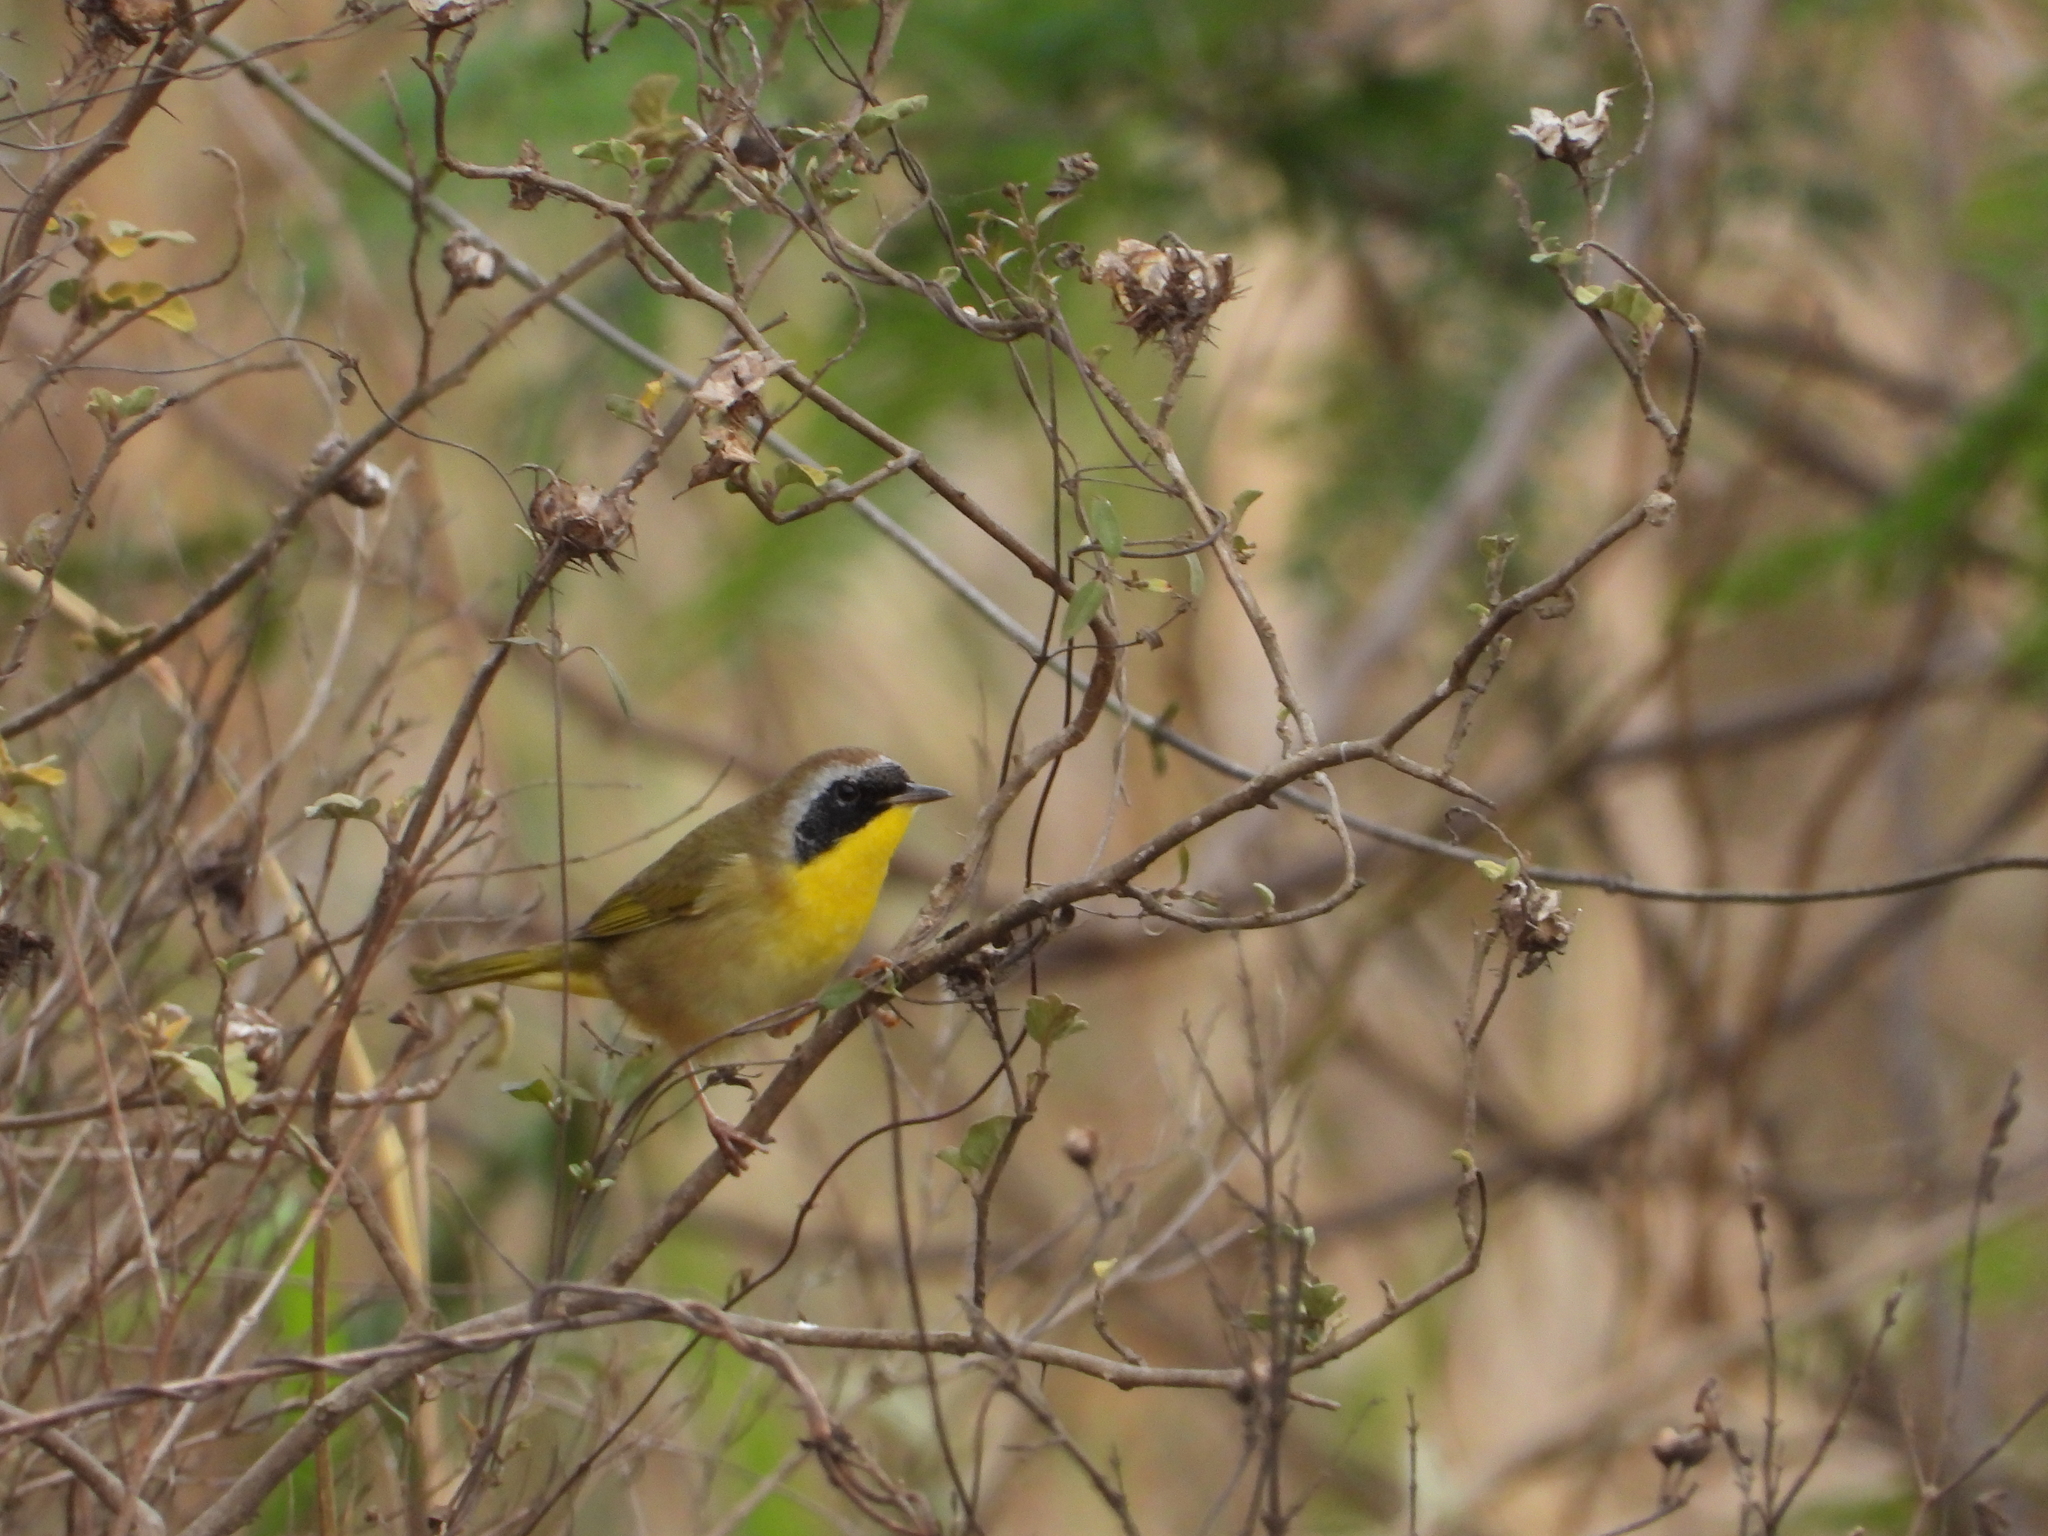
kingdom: Animalia
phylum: Chordata
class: Aves
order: Passeriformes
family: Parulidae
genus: Geothlypis
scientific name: Geothlypis trichas
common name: Common yellowthroat
